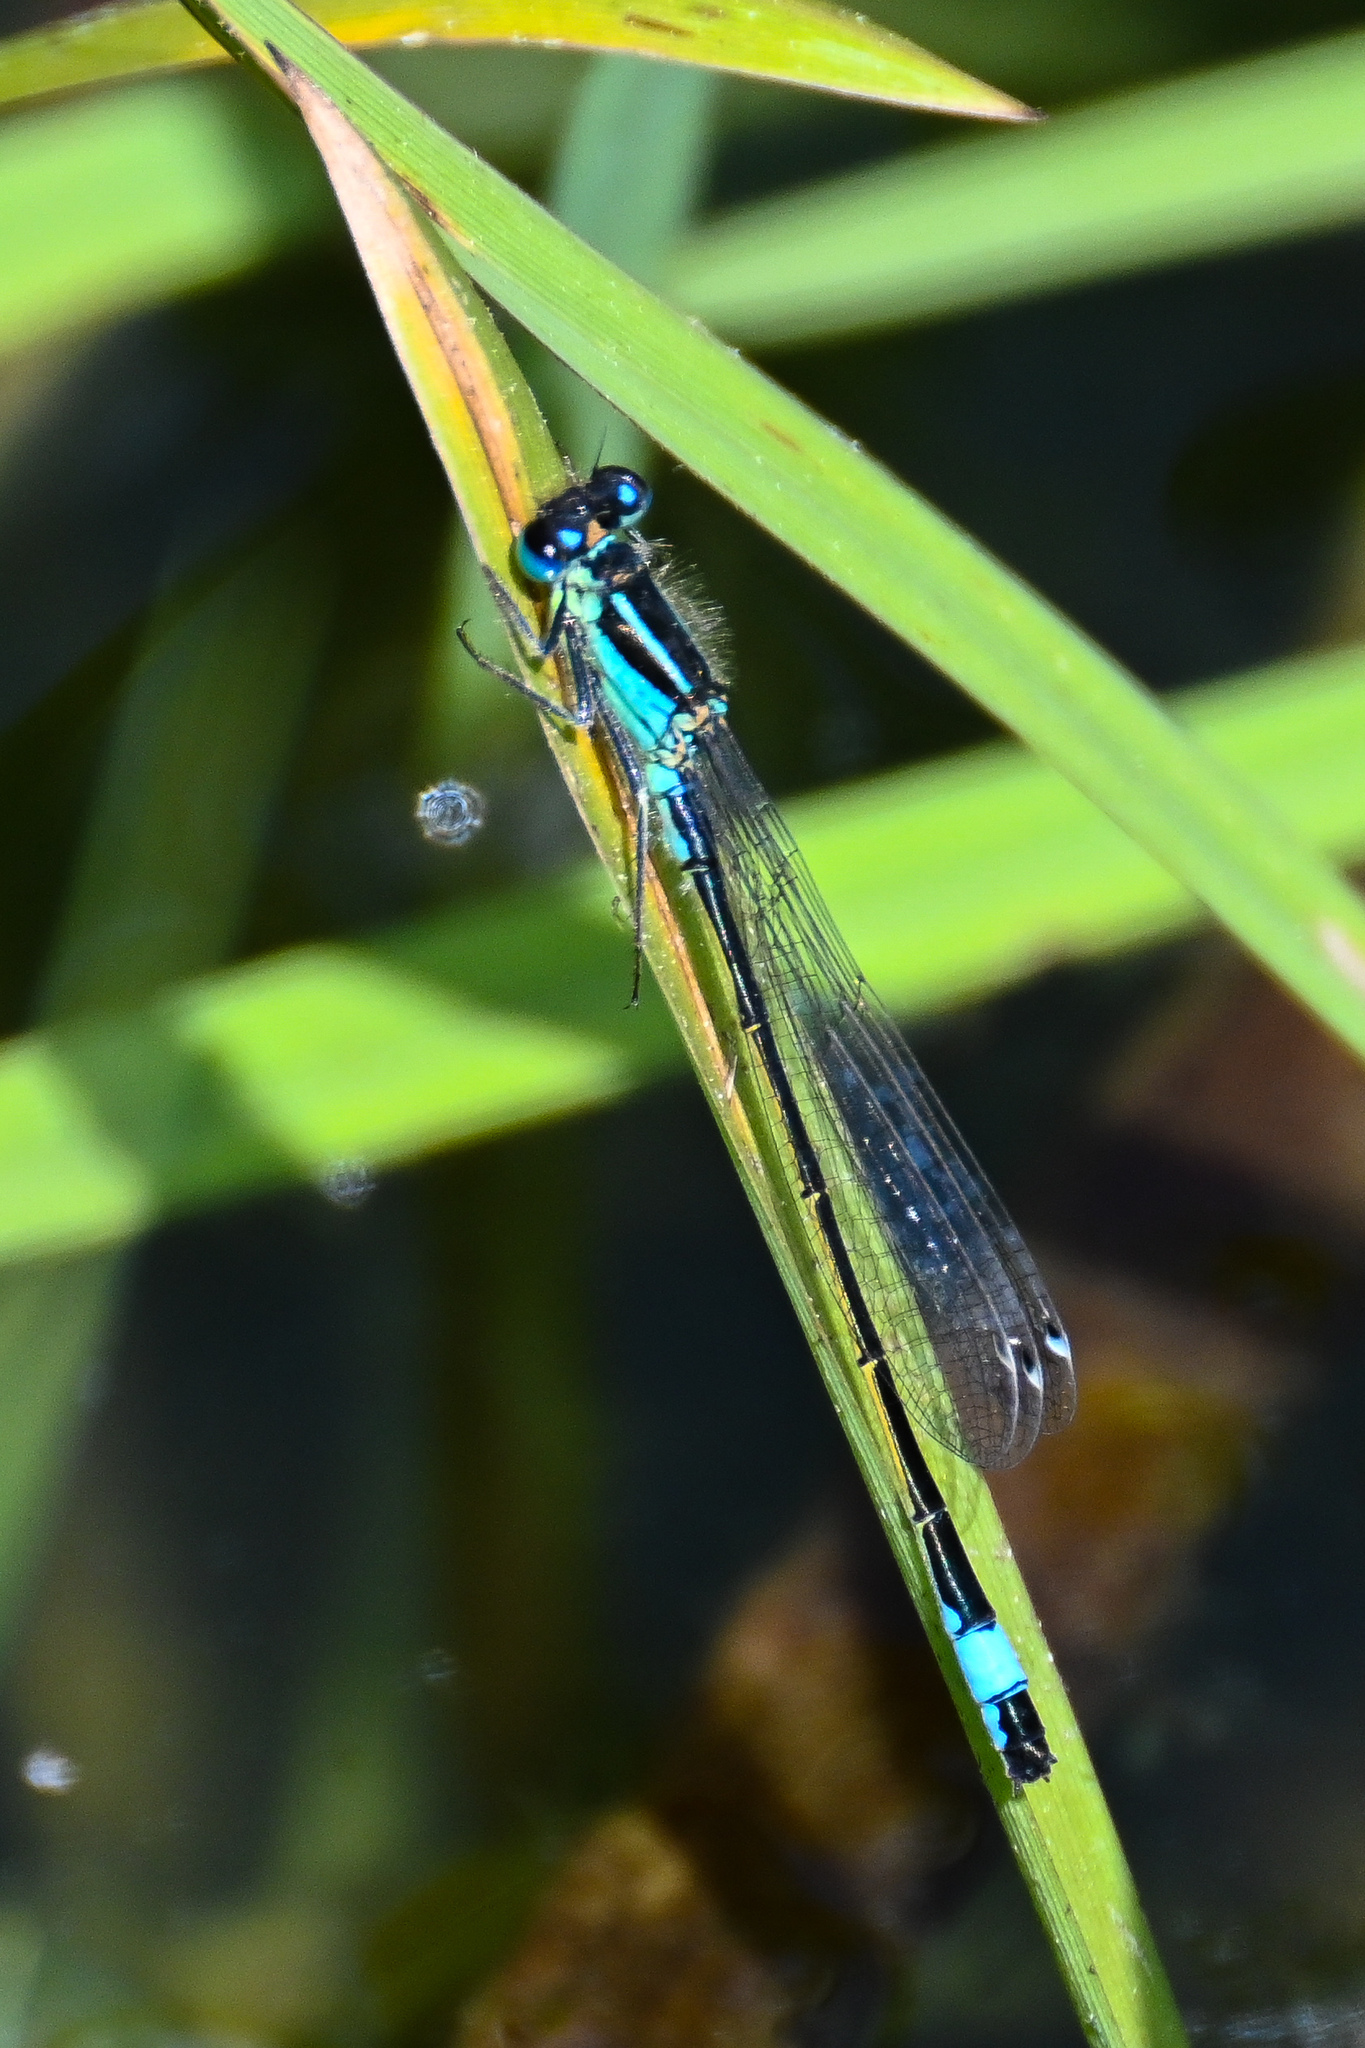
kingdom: Animalia
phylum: Arthropoda
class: Insecta
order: Odonata
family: Coenagrionidae
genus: Ischnura
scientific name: Ischnura elegans
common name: Blue-tailed damselfly
